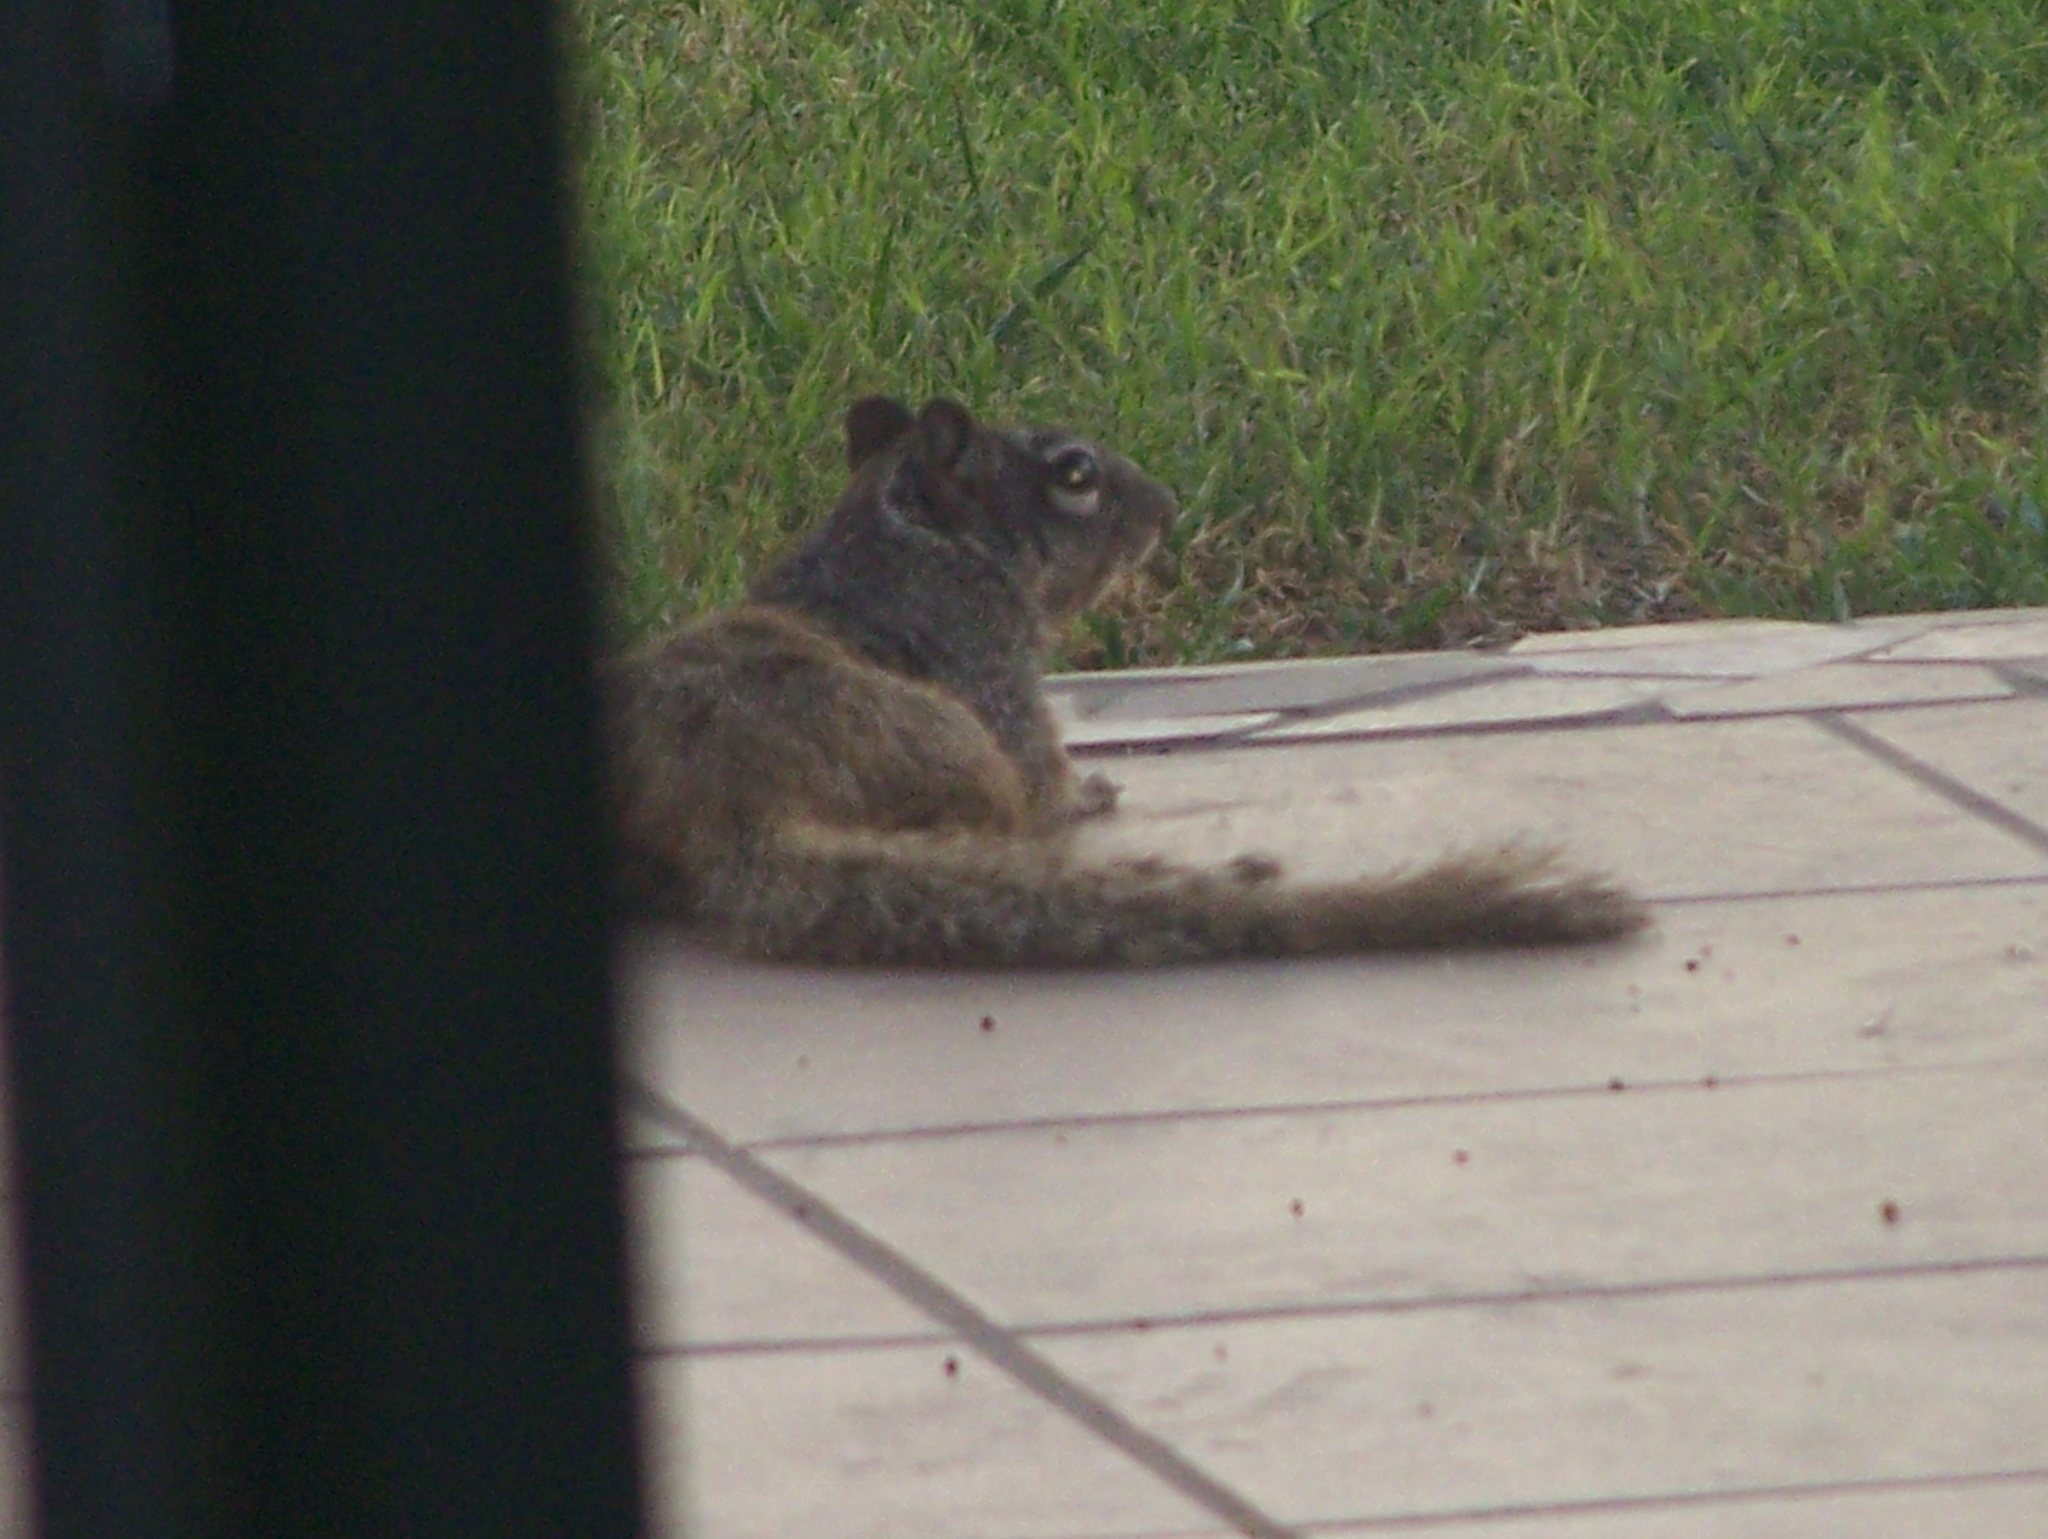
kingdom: Animalia
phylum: Chordata
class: Mammalia
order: Rodentia
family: Sciuridae
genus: Otospermophilus
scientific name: Otospermophilus variegatus
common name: Rock squirrel
